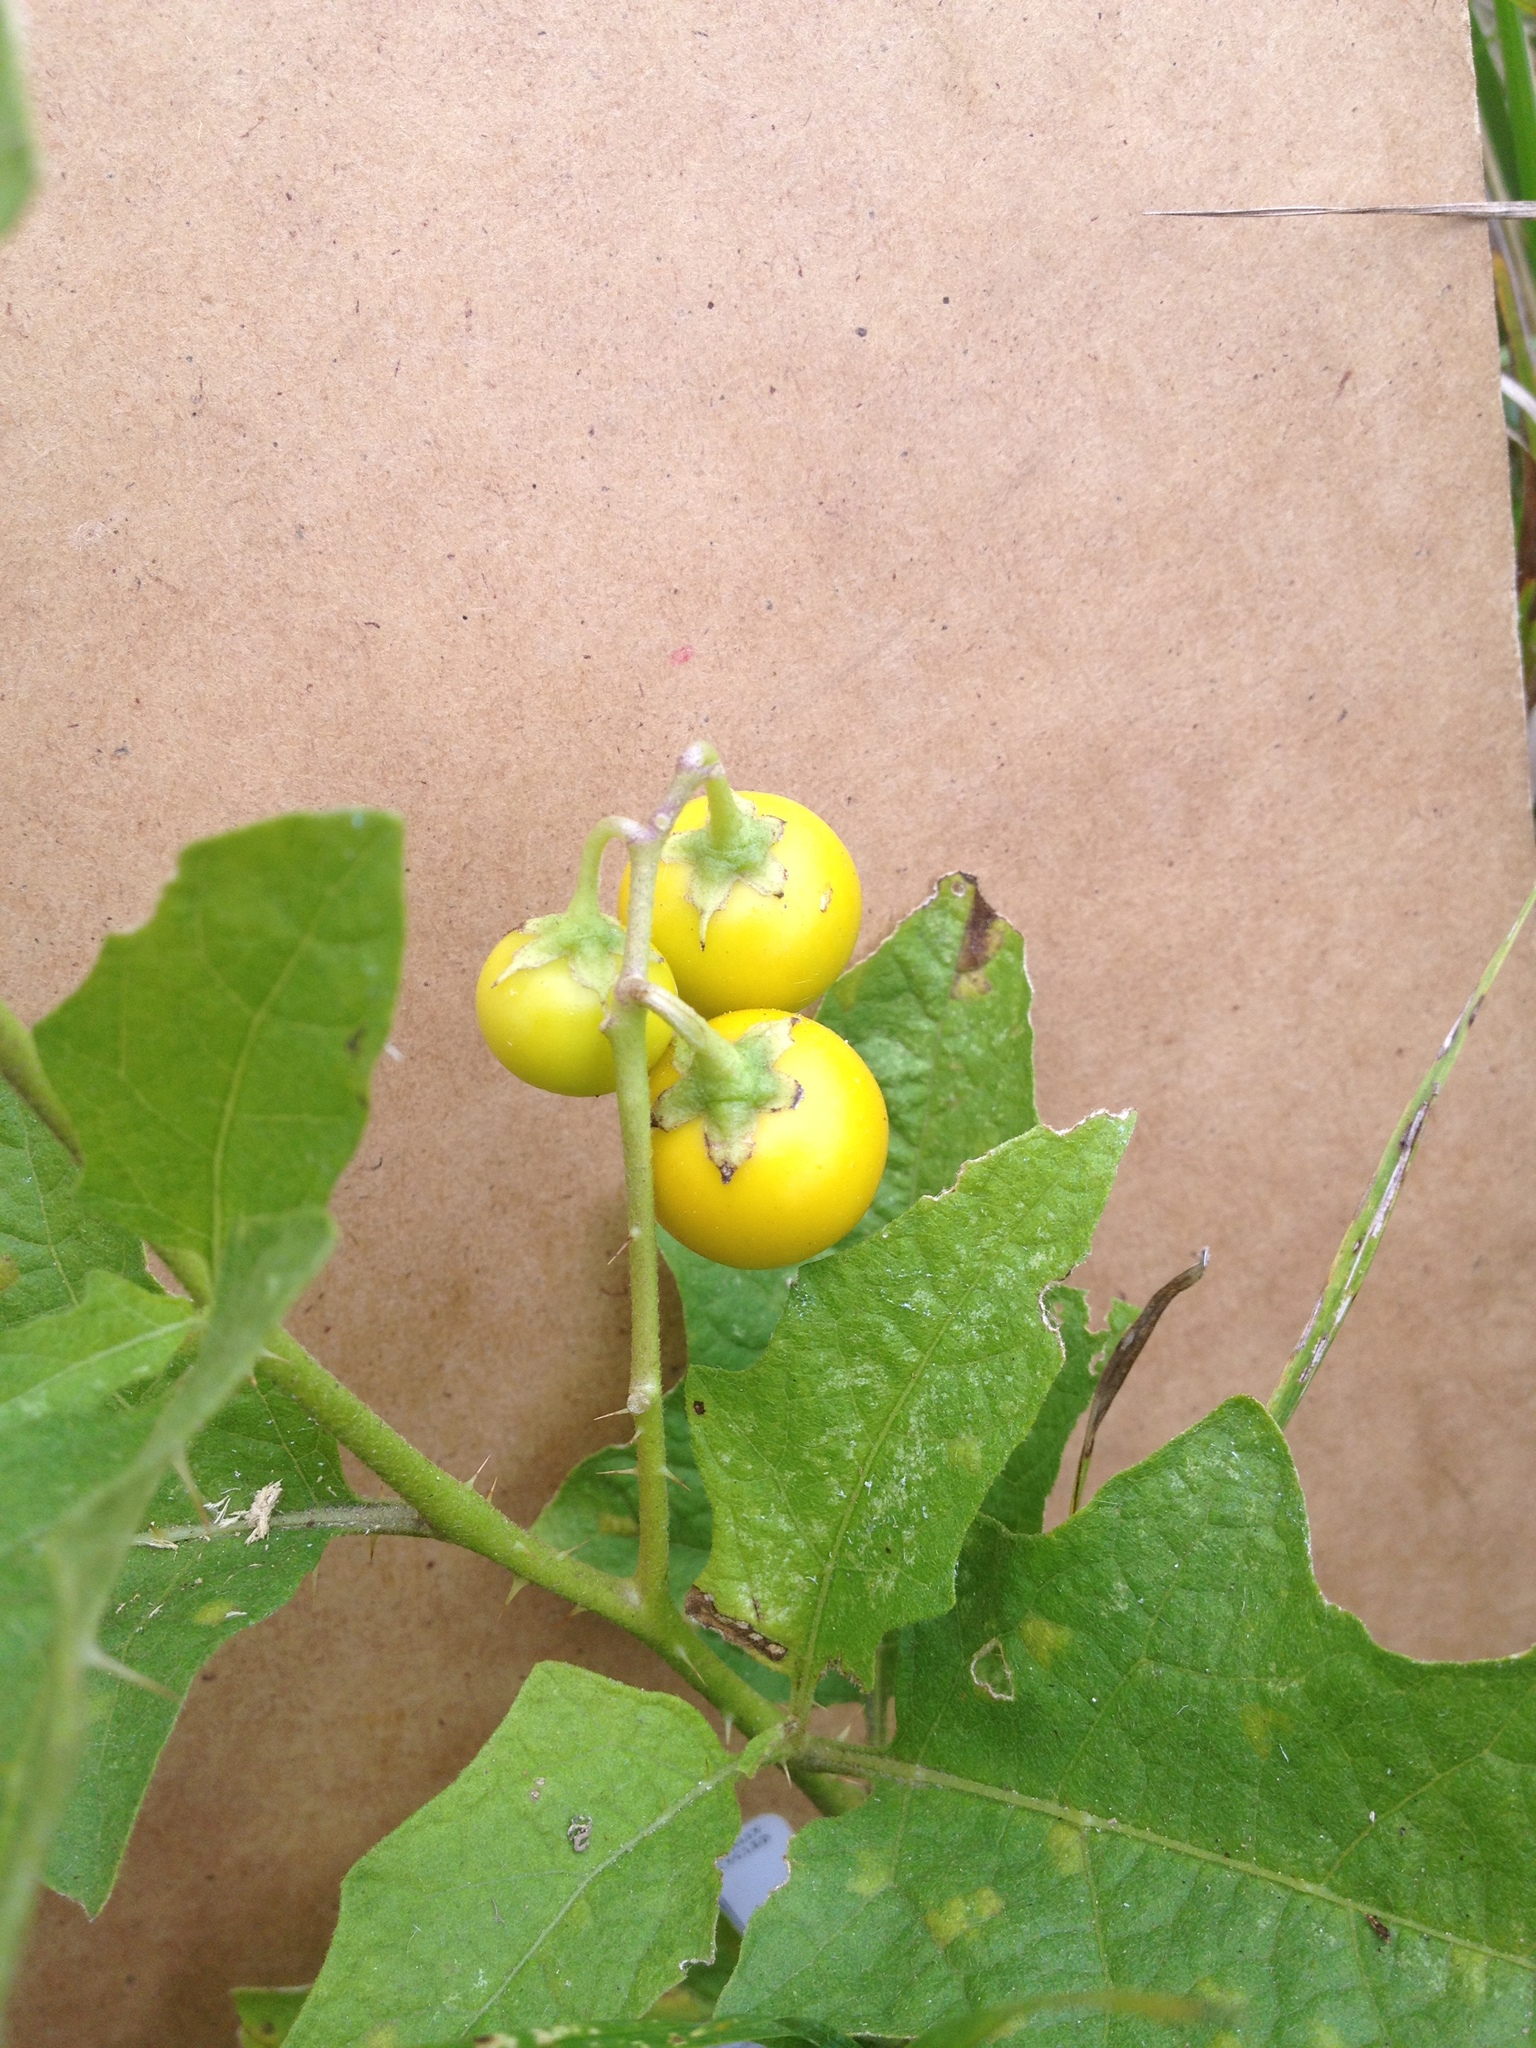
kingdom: Plantae
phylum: Tracheophyta
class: Magnoliopsida
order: Solanales
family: Solanaceae
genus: Solanum
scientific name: Solanum carolinense
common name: Horse-nettle
